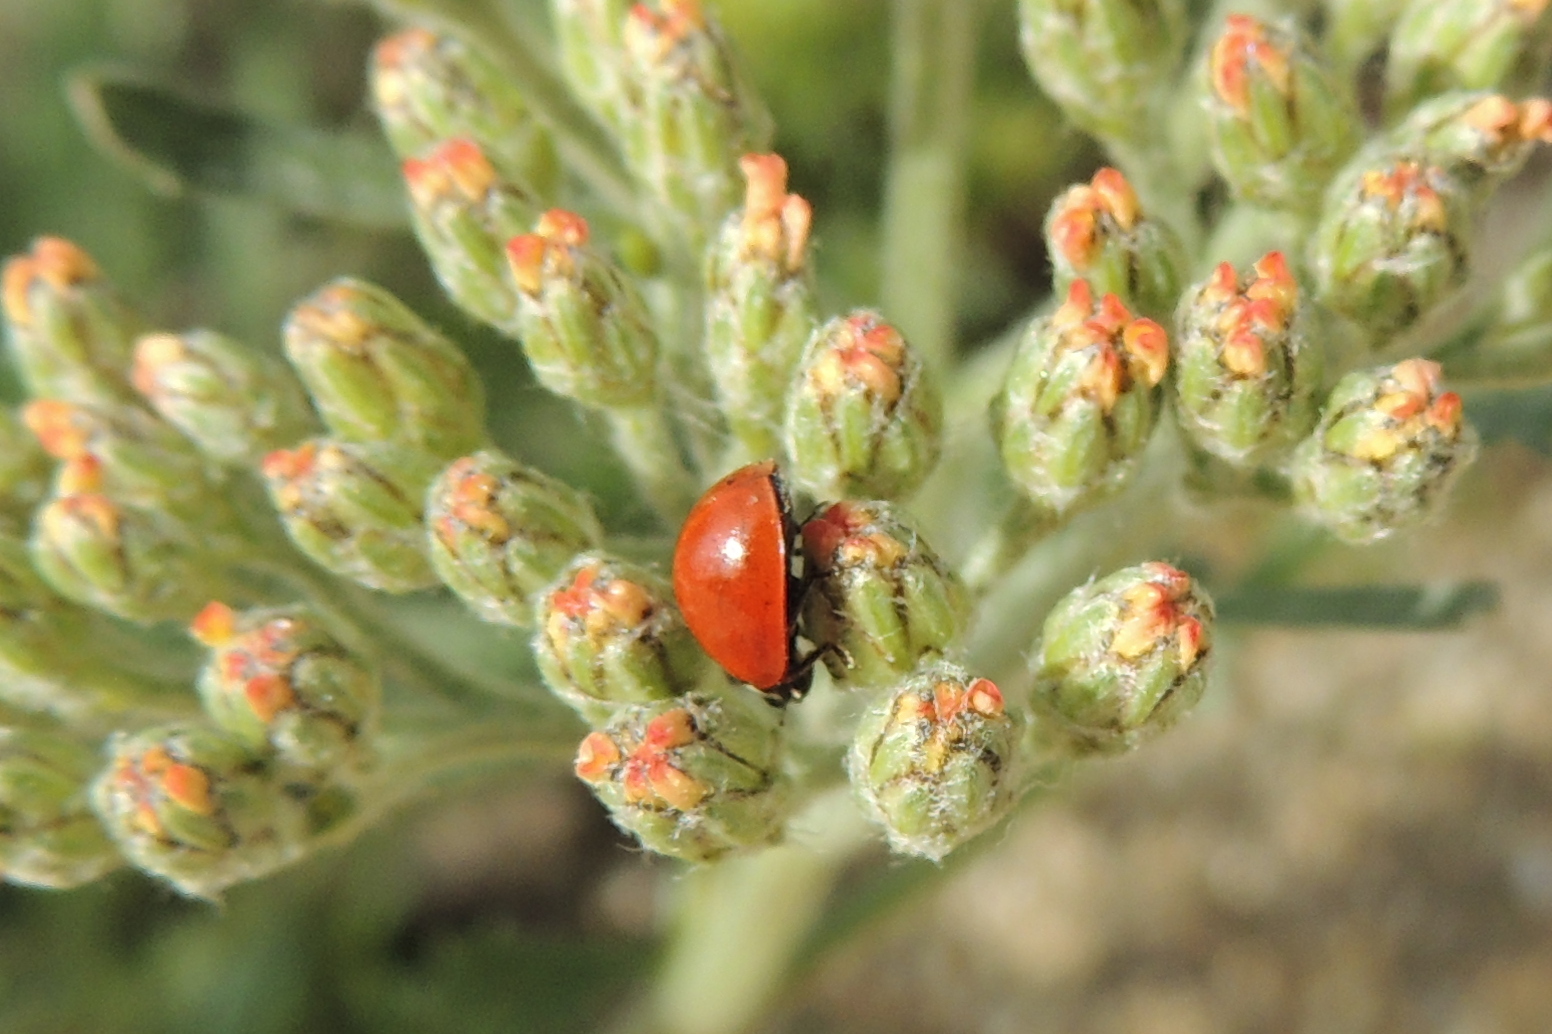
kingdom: Animalia
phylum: Arthropoda
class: Insecta
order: Coleoptera
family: Coccinellidae
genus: Cycloneda
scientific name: Cycloneda
